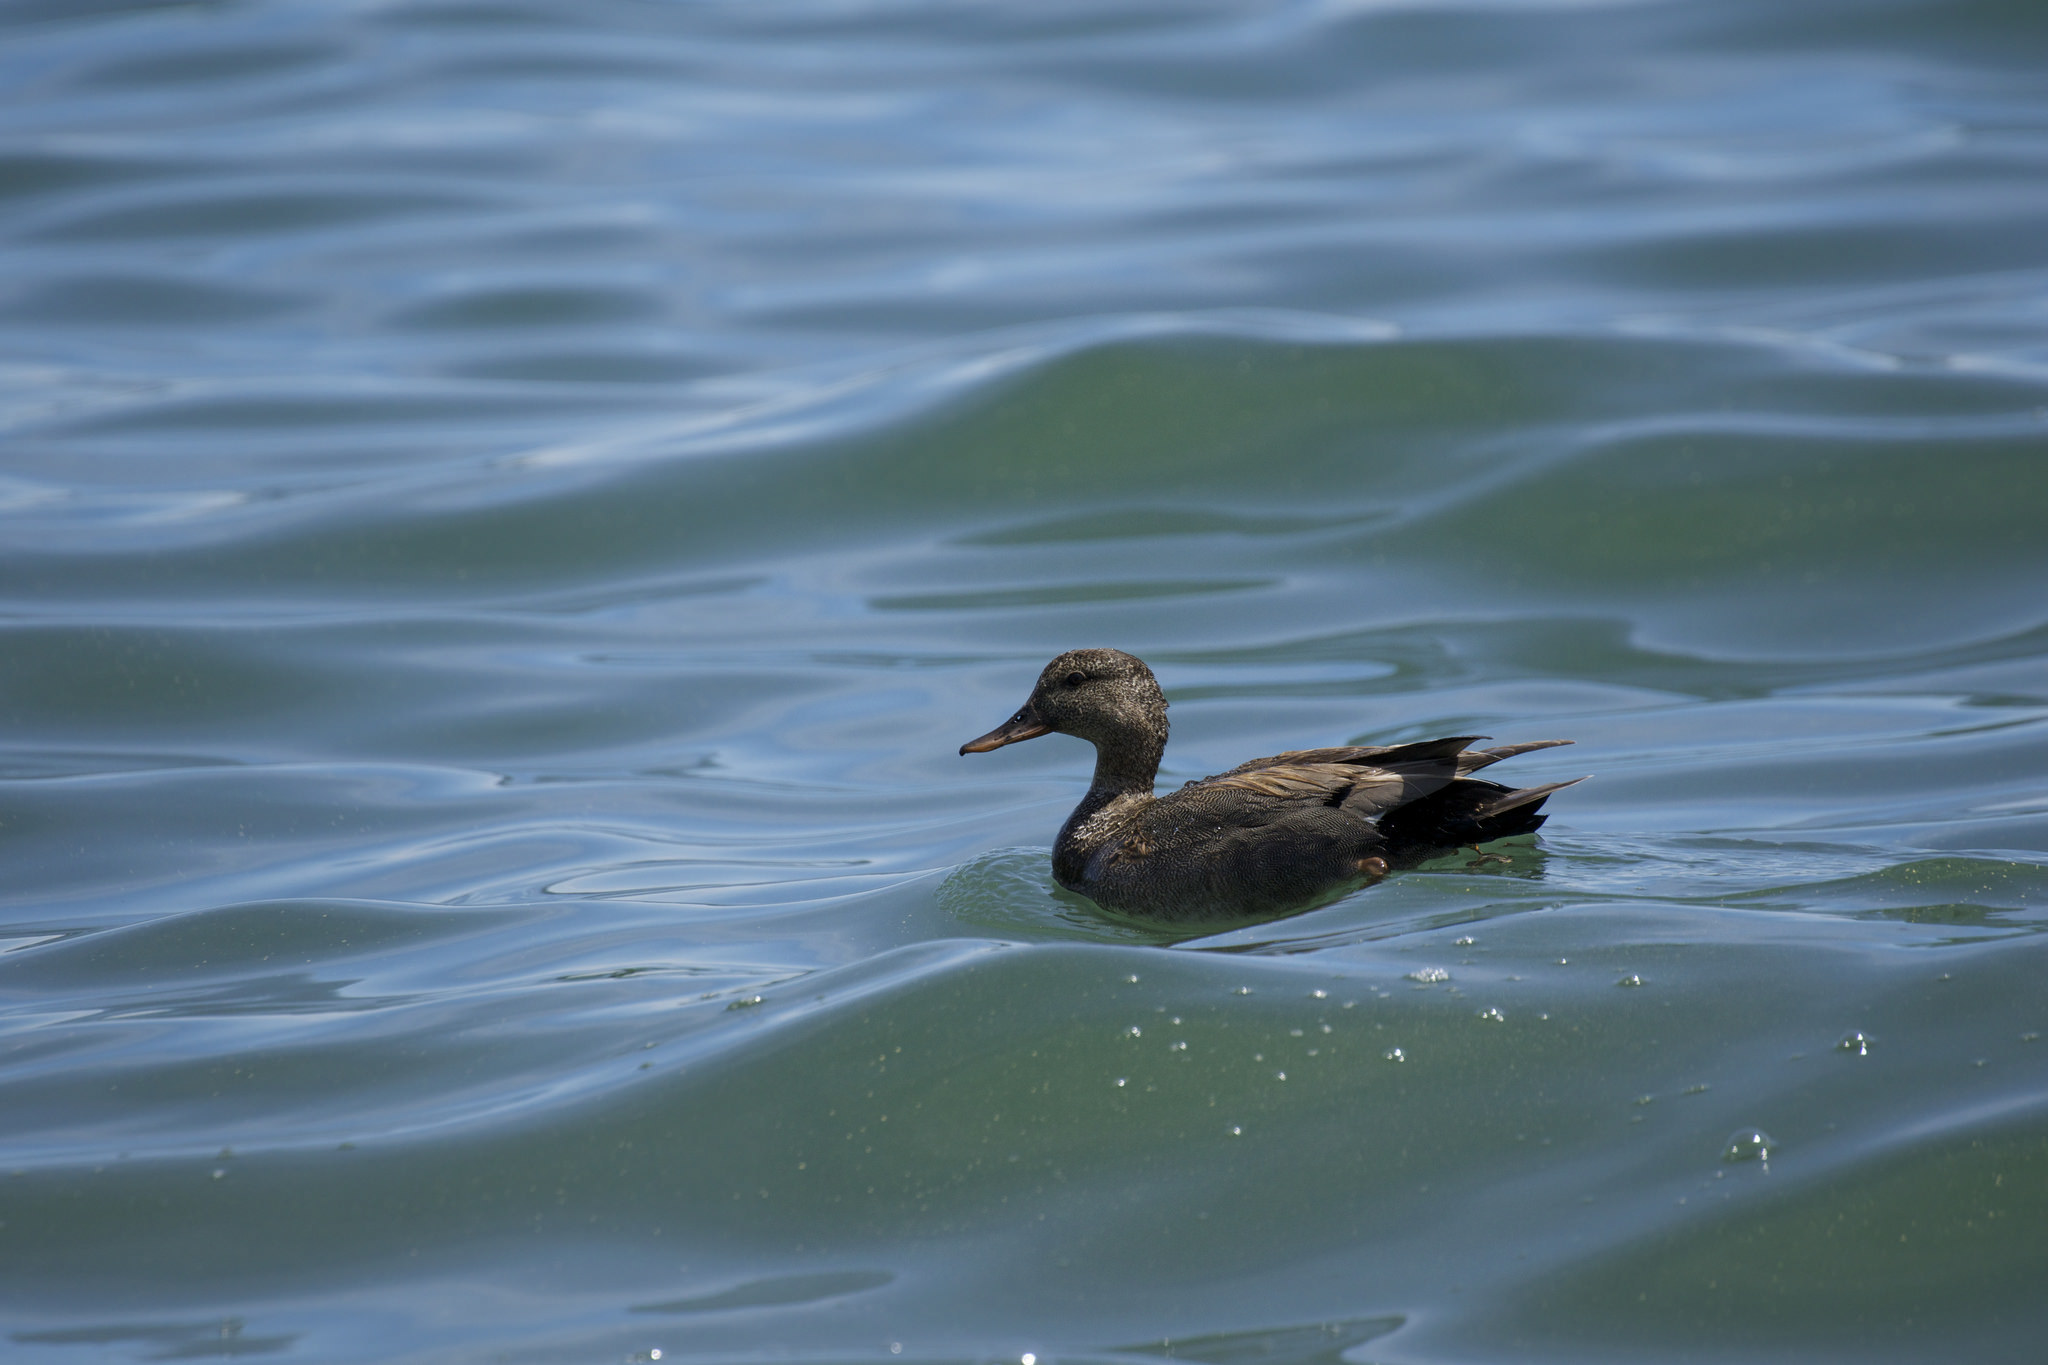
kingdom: Animalia
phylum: Chordata
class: Aves
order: Anseriformes
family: Anatidae
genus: Mareca
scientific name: Mareca strepera
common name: Gadwall
